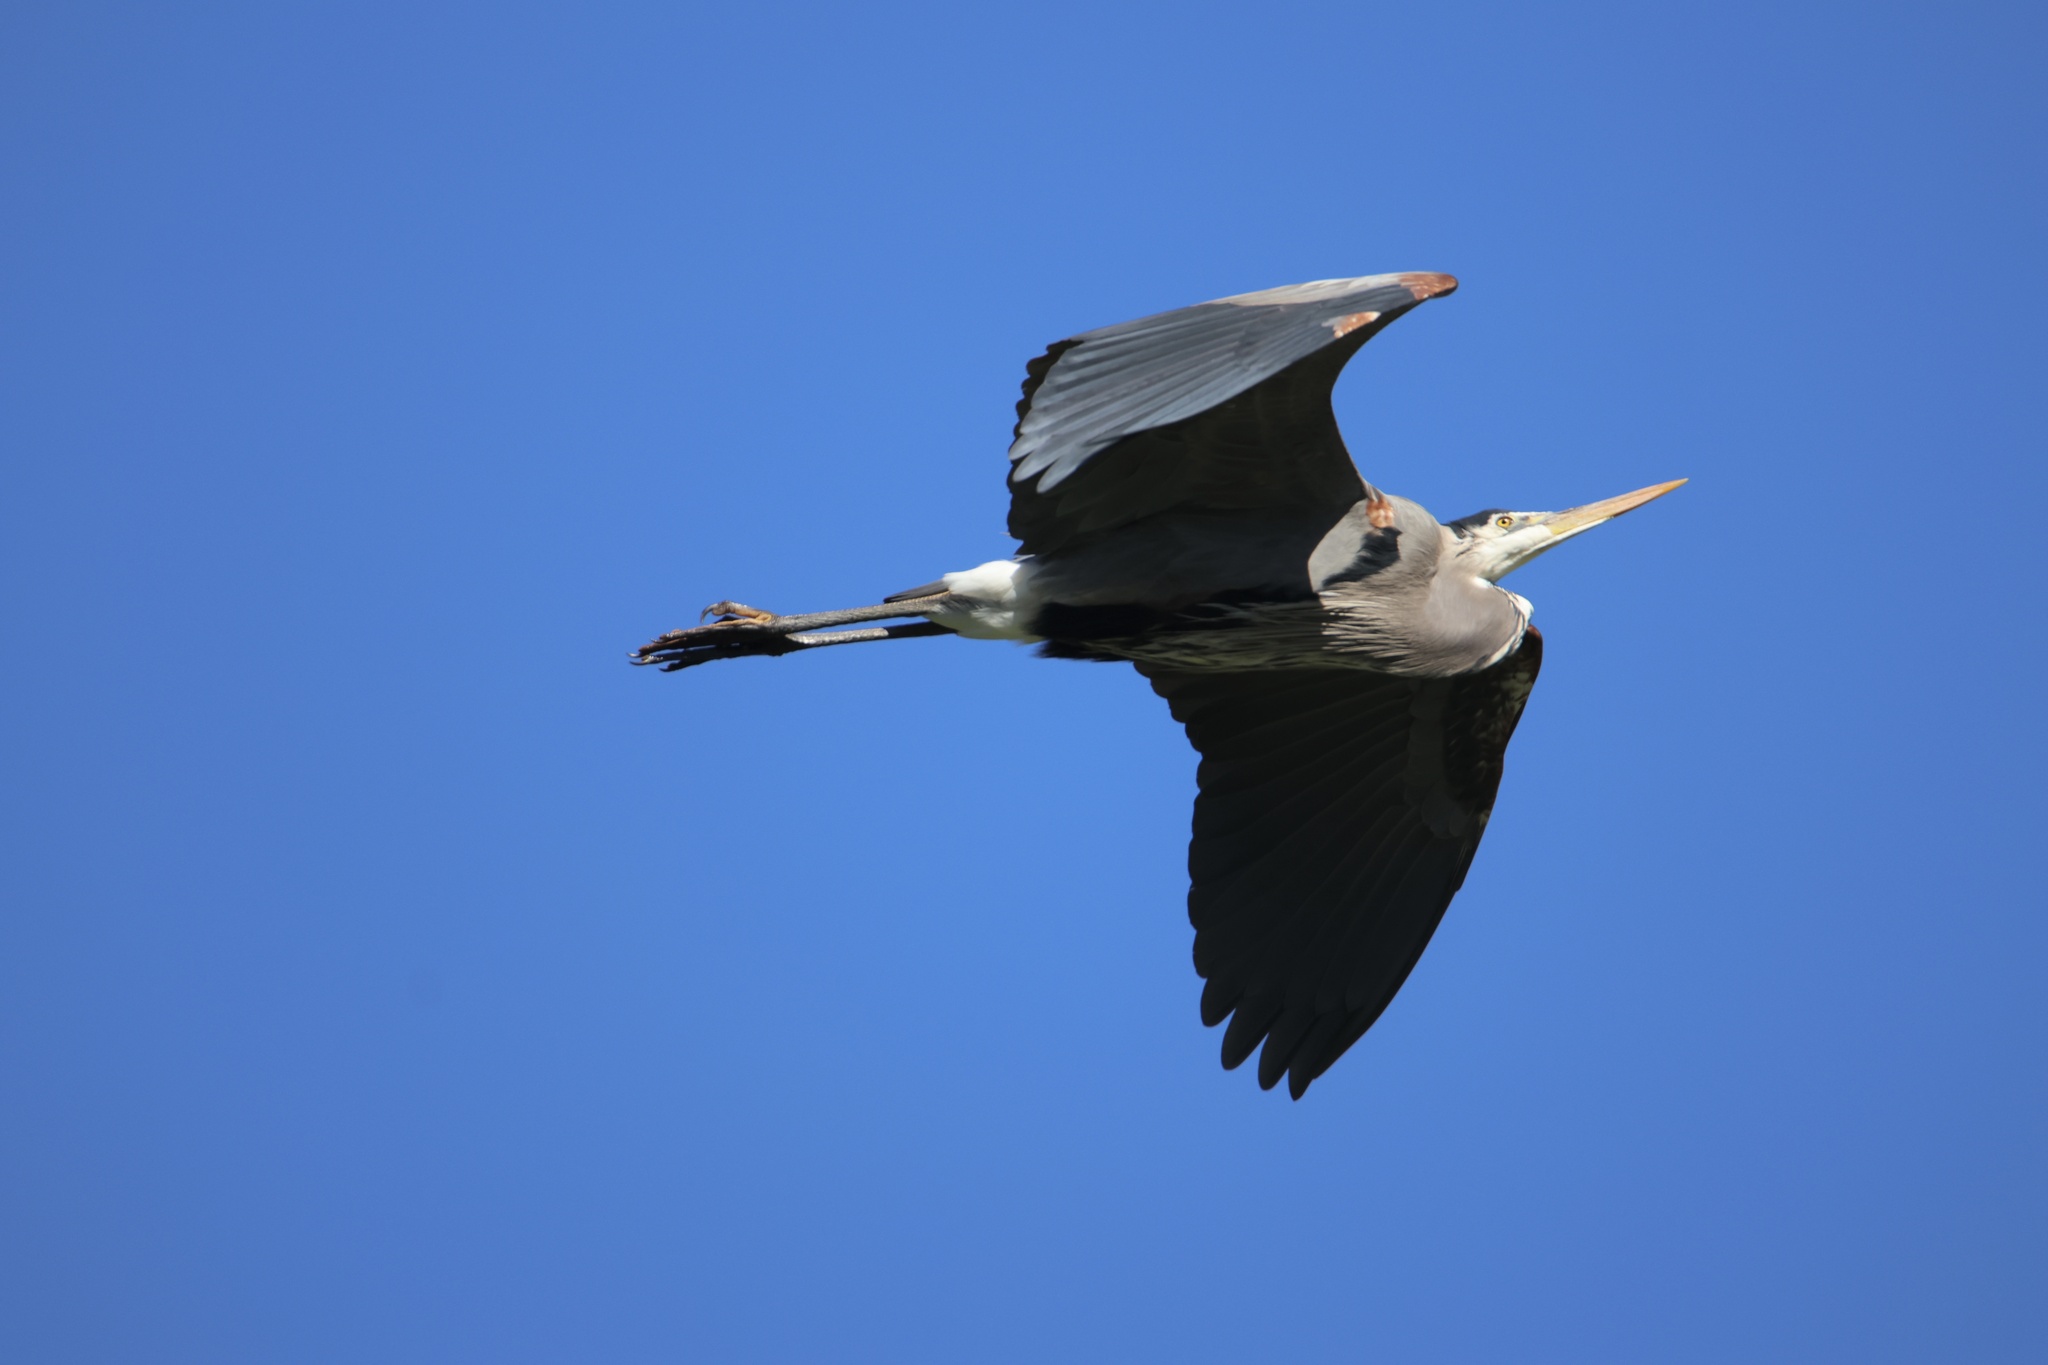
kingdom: Animalia
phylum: Chordata
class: Aves
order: Pelecaniformes
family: Ardeidae
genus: Ardea
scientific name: Ardea herodias
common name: Great blue heron
